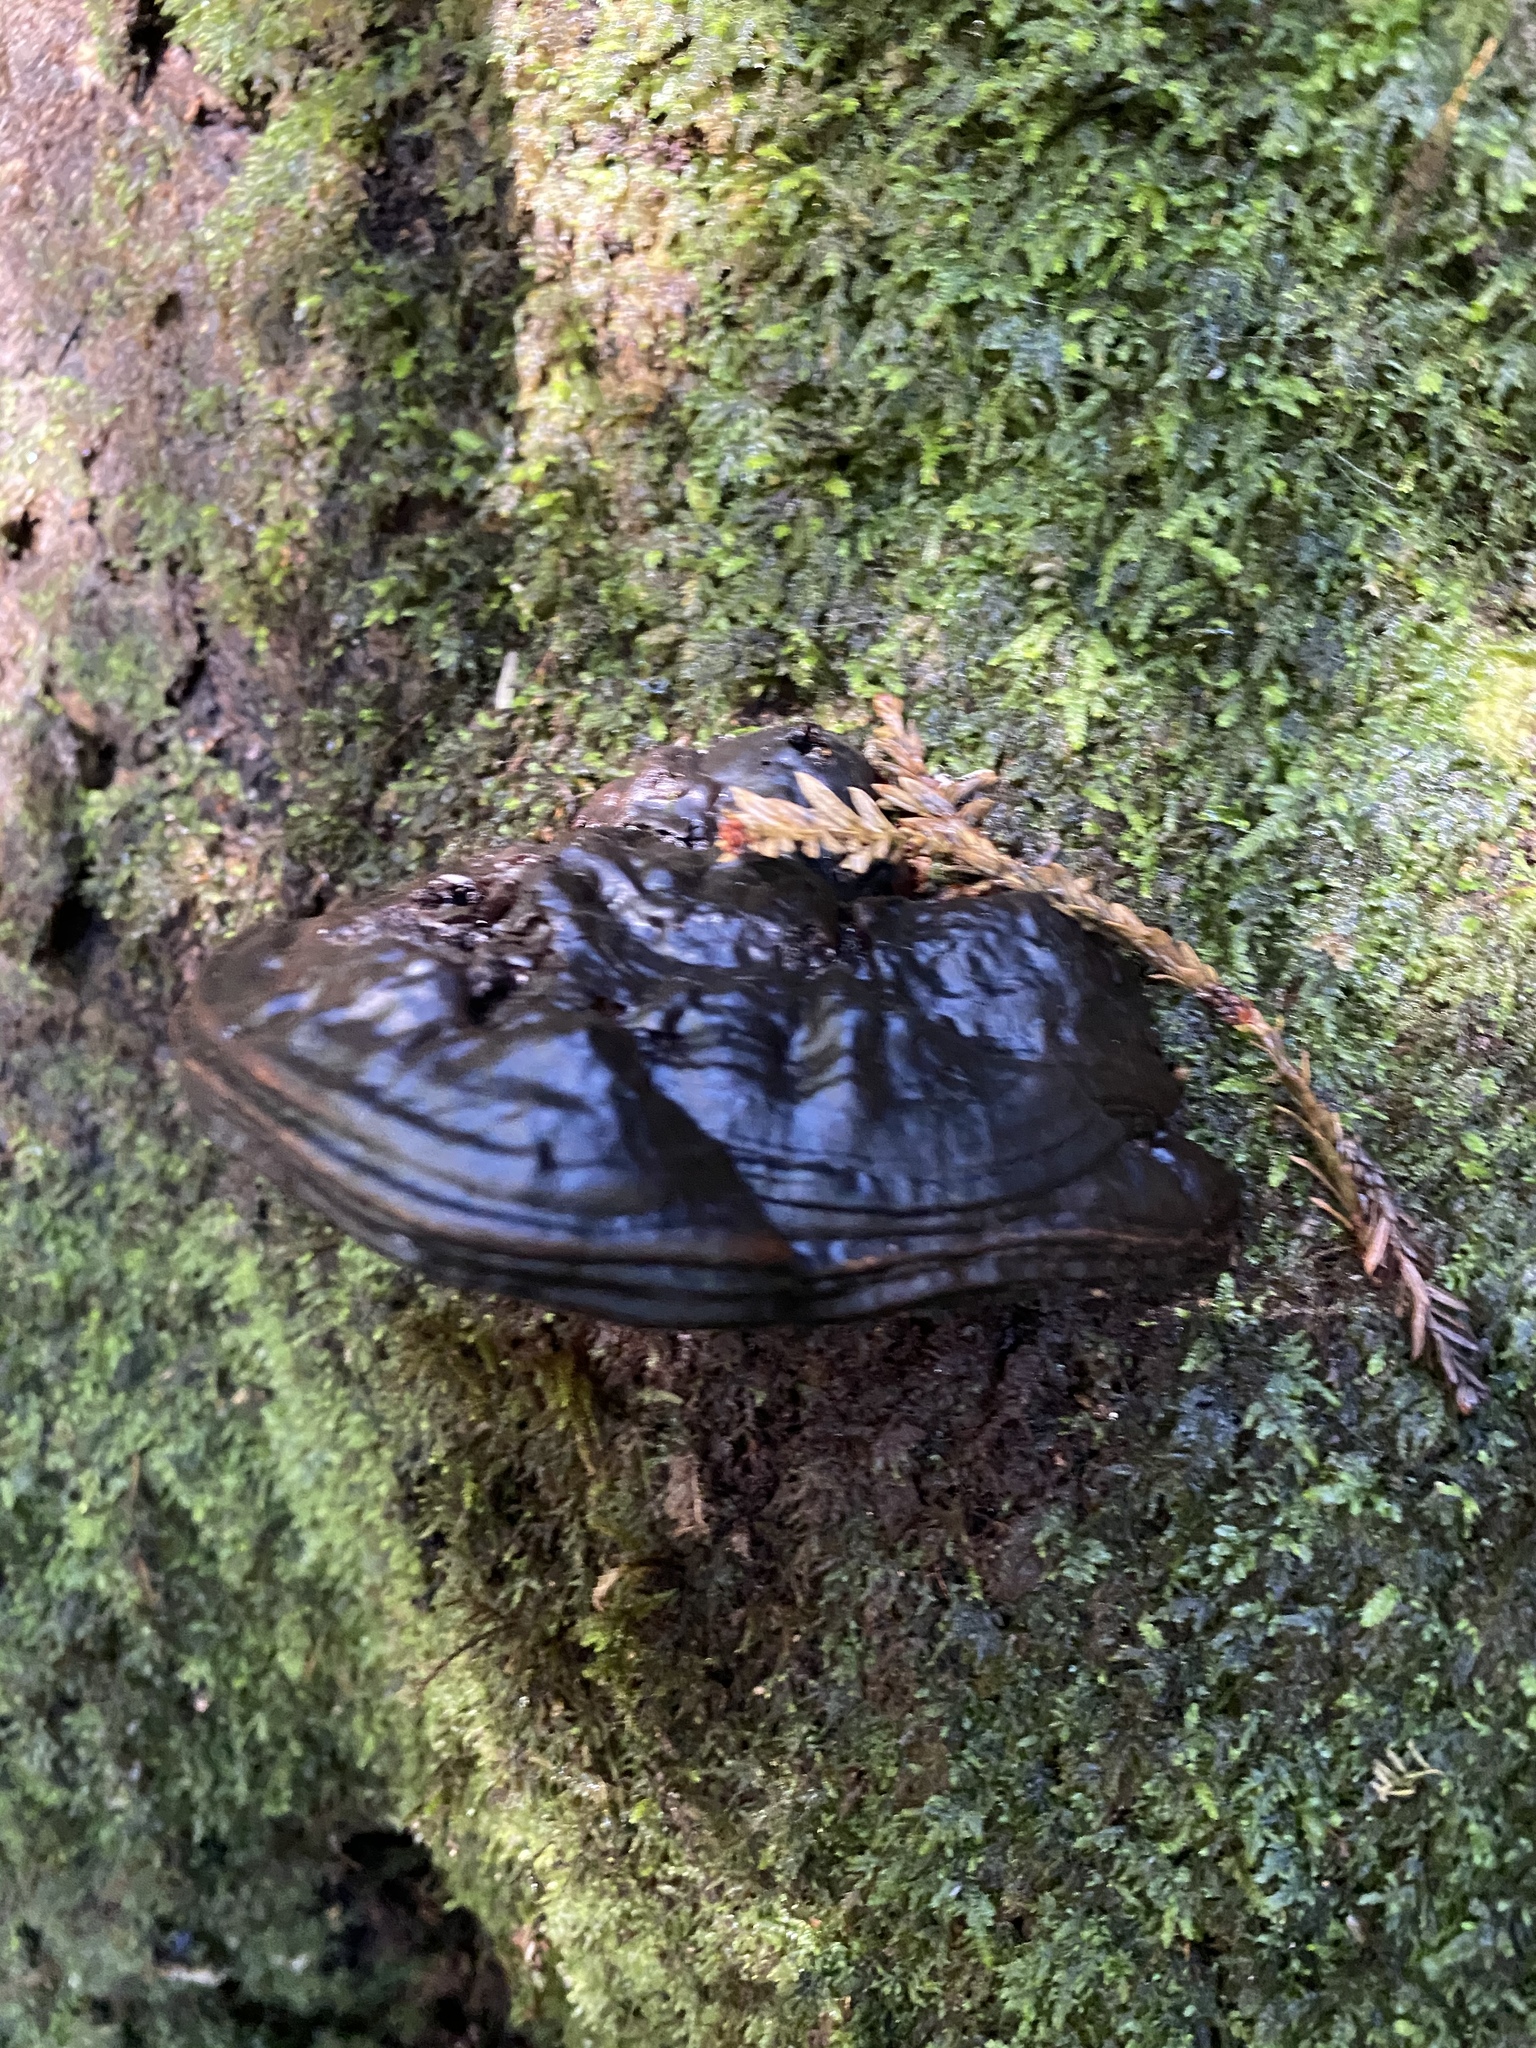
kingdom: Fungi
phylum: Basidiomycota
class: Agaricomycetes
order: Polyporales
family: Polyporaceae
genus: Ganoderma
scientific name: Ganoderma brownii
